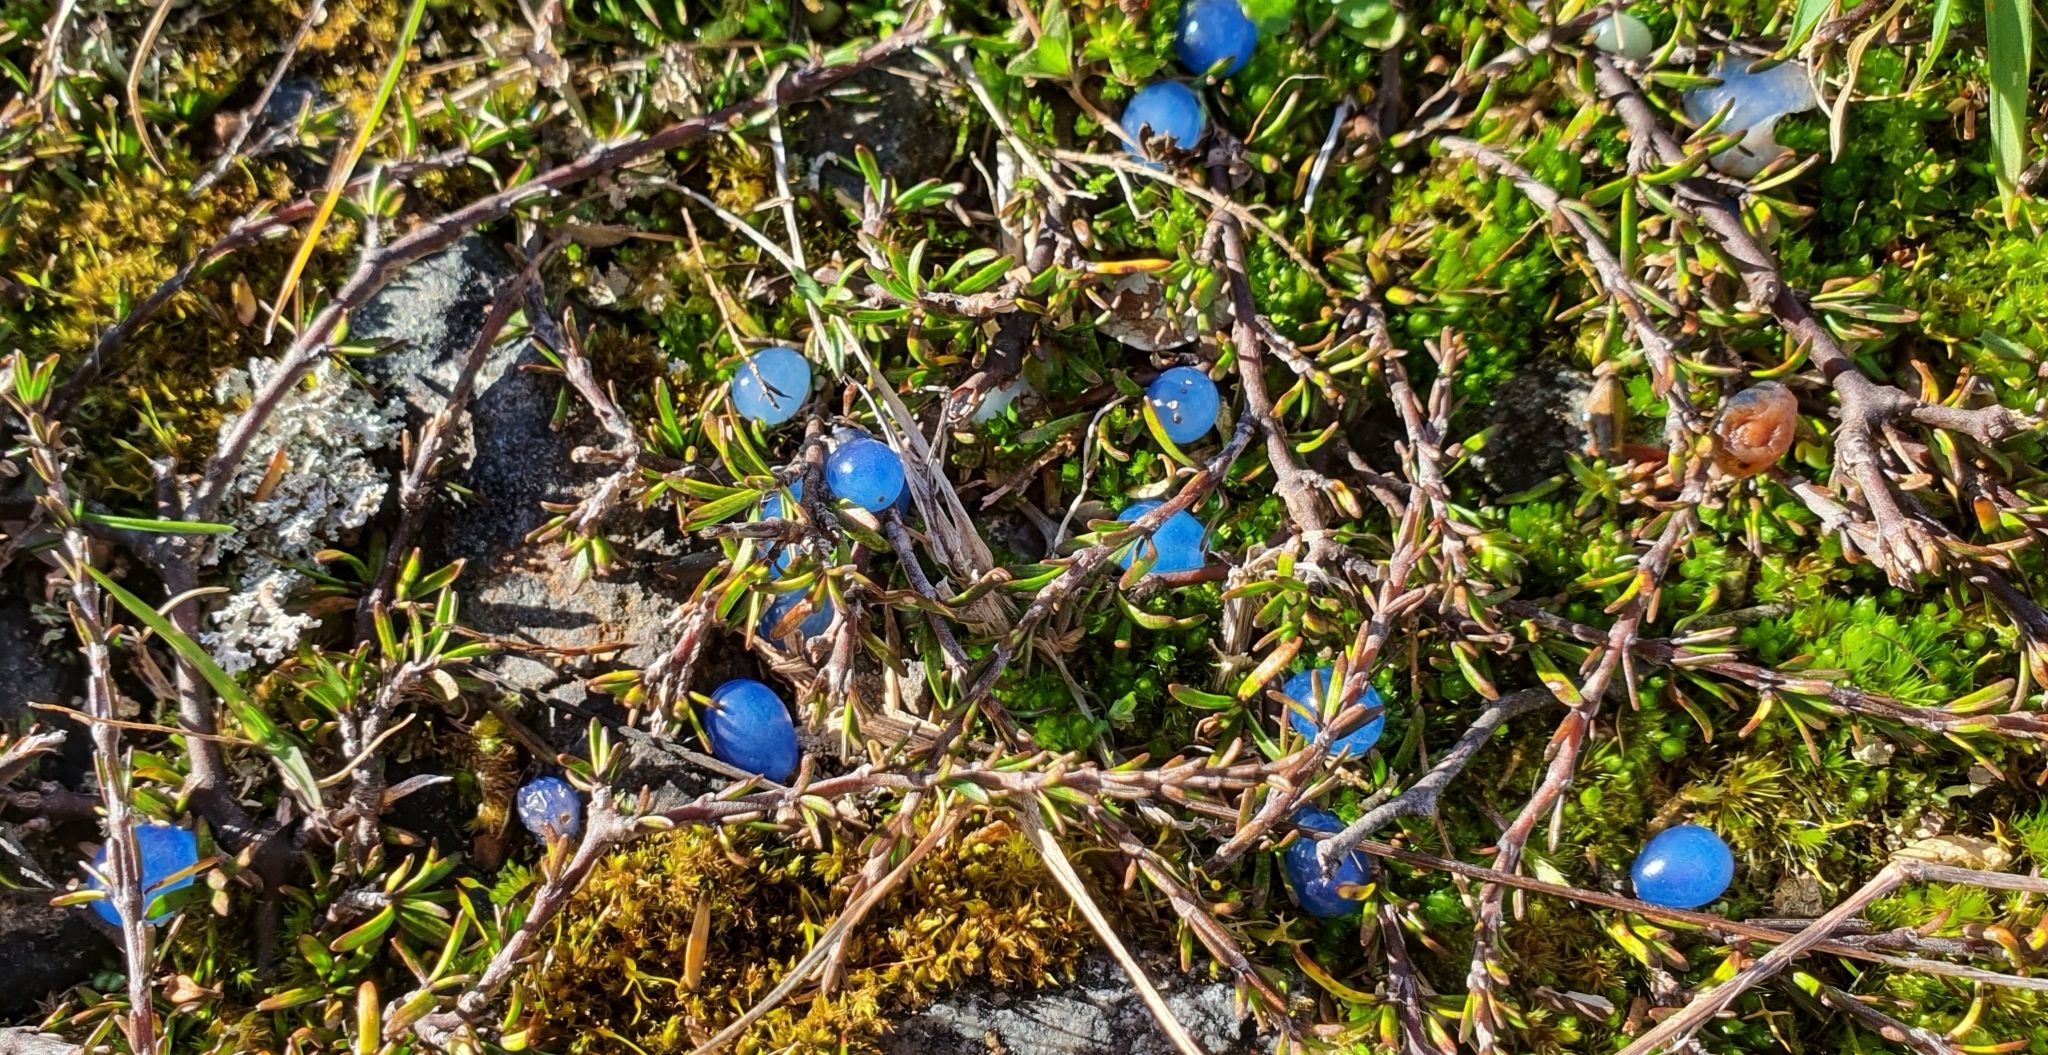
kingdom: Plantae
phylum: Tracheophyta
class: Magnoliopsida
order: Gentianales
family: Rubiaceae
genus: Coprosma
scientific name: Coprosma acerosa
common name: Sand coprosma
